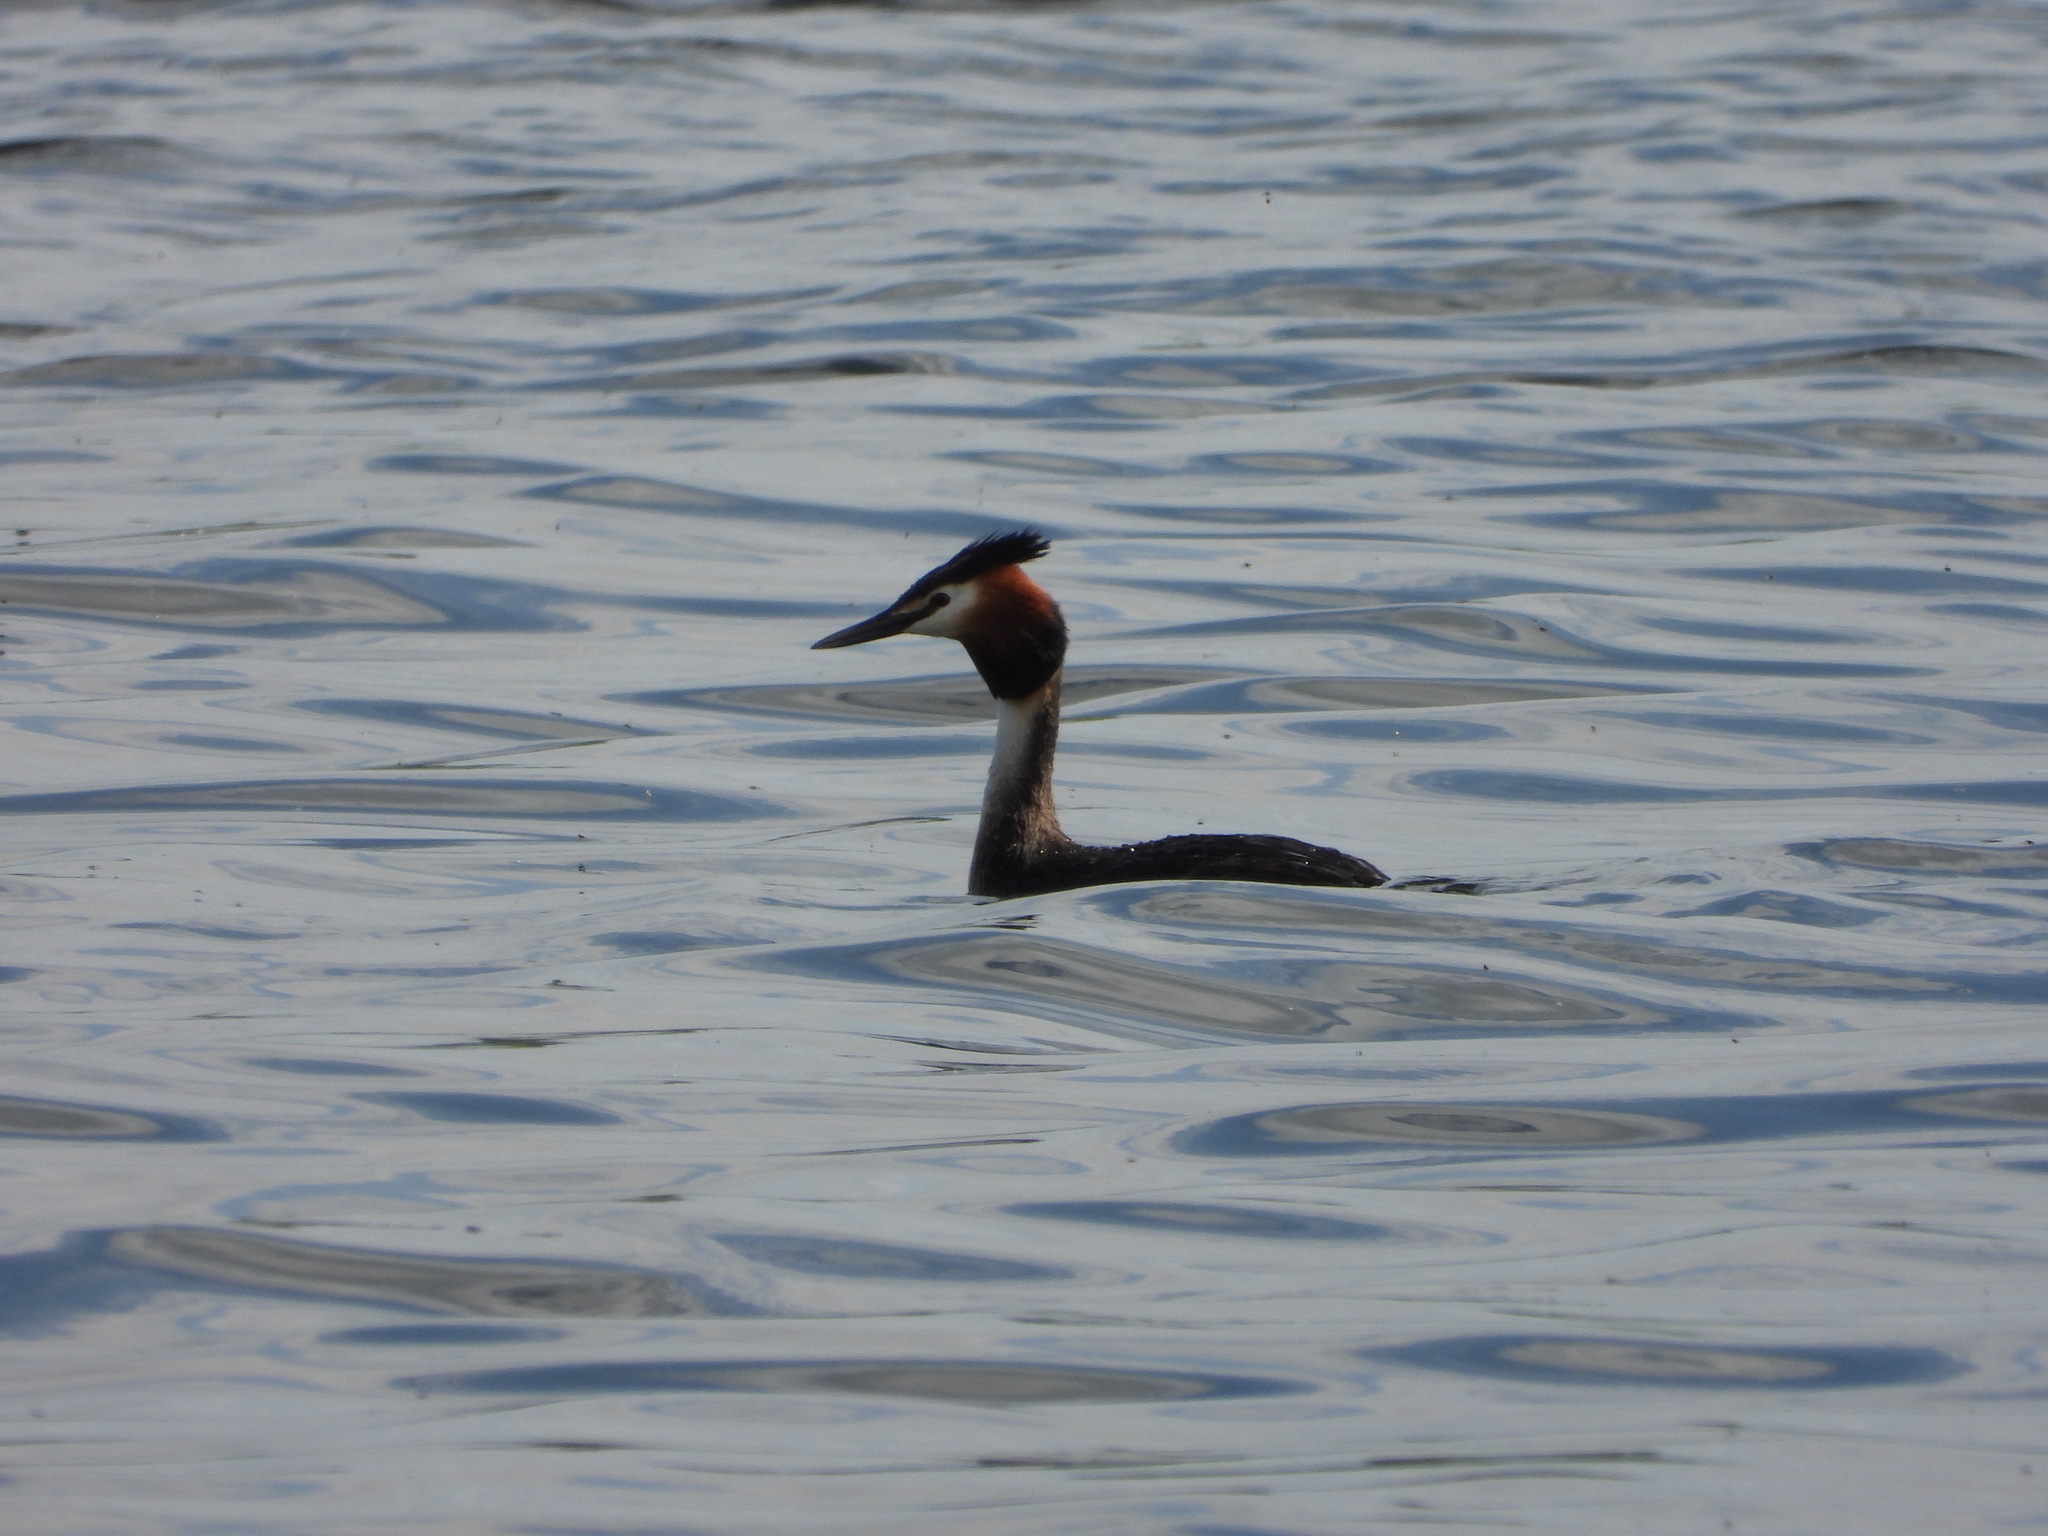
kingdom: Animalia
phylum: Chordata
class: Aves
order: Podicipediformes
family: Podicipedidae
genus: Podiceps
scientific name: Podiceps cristatus
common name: Great crested grebe
